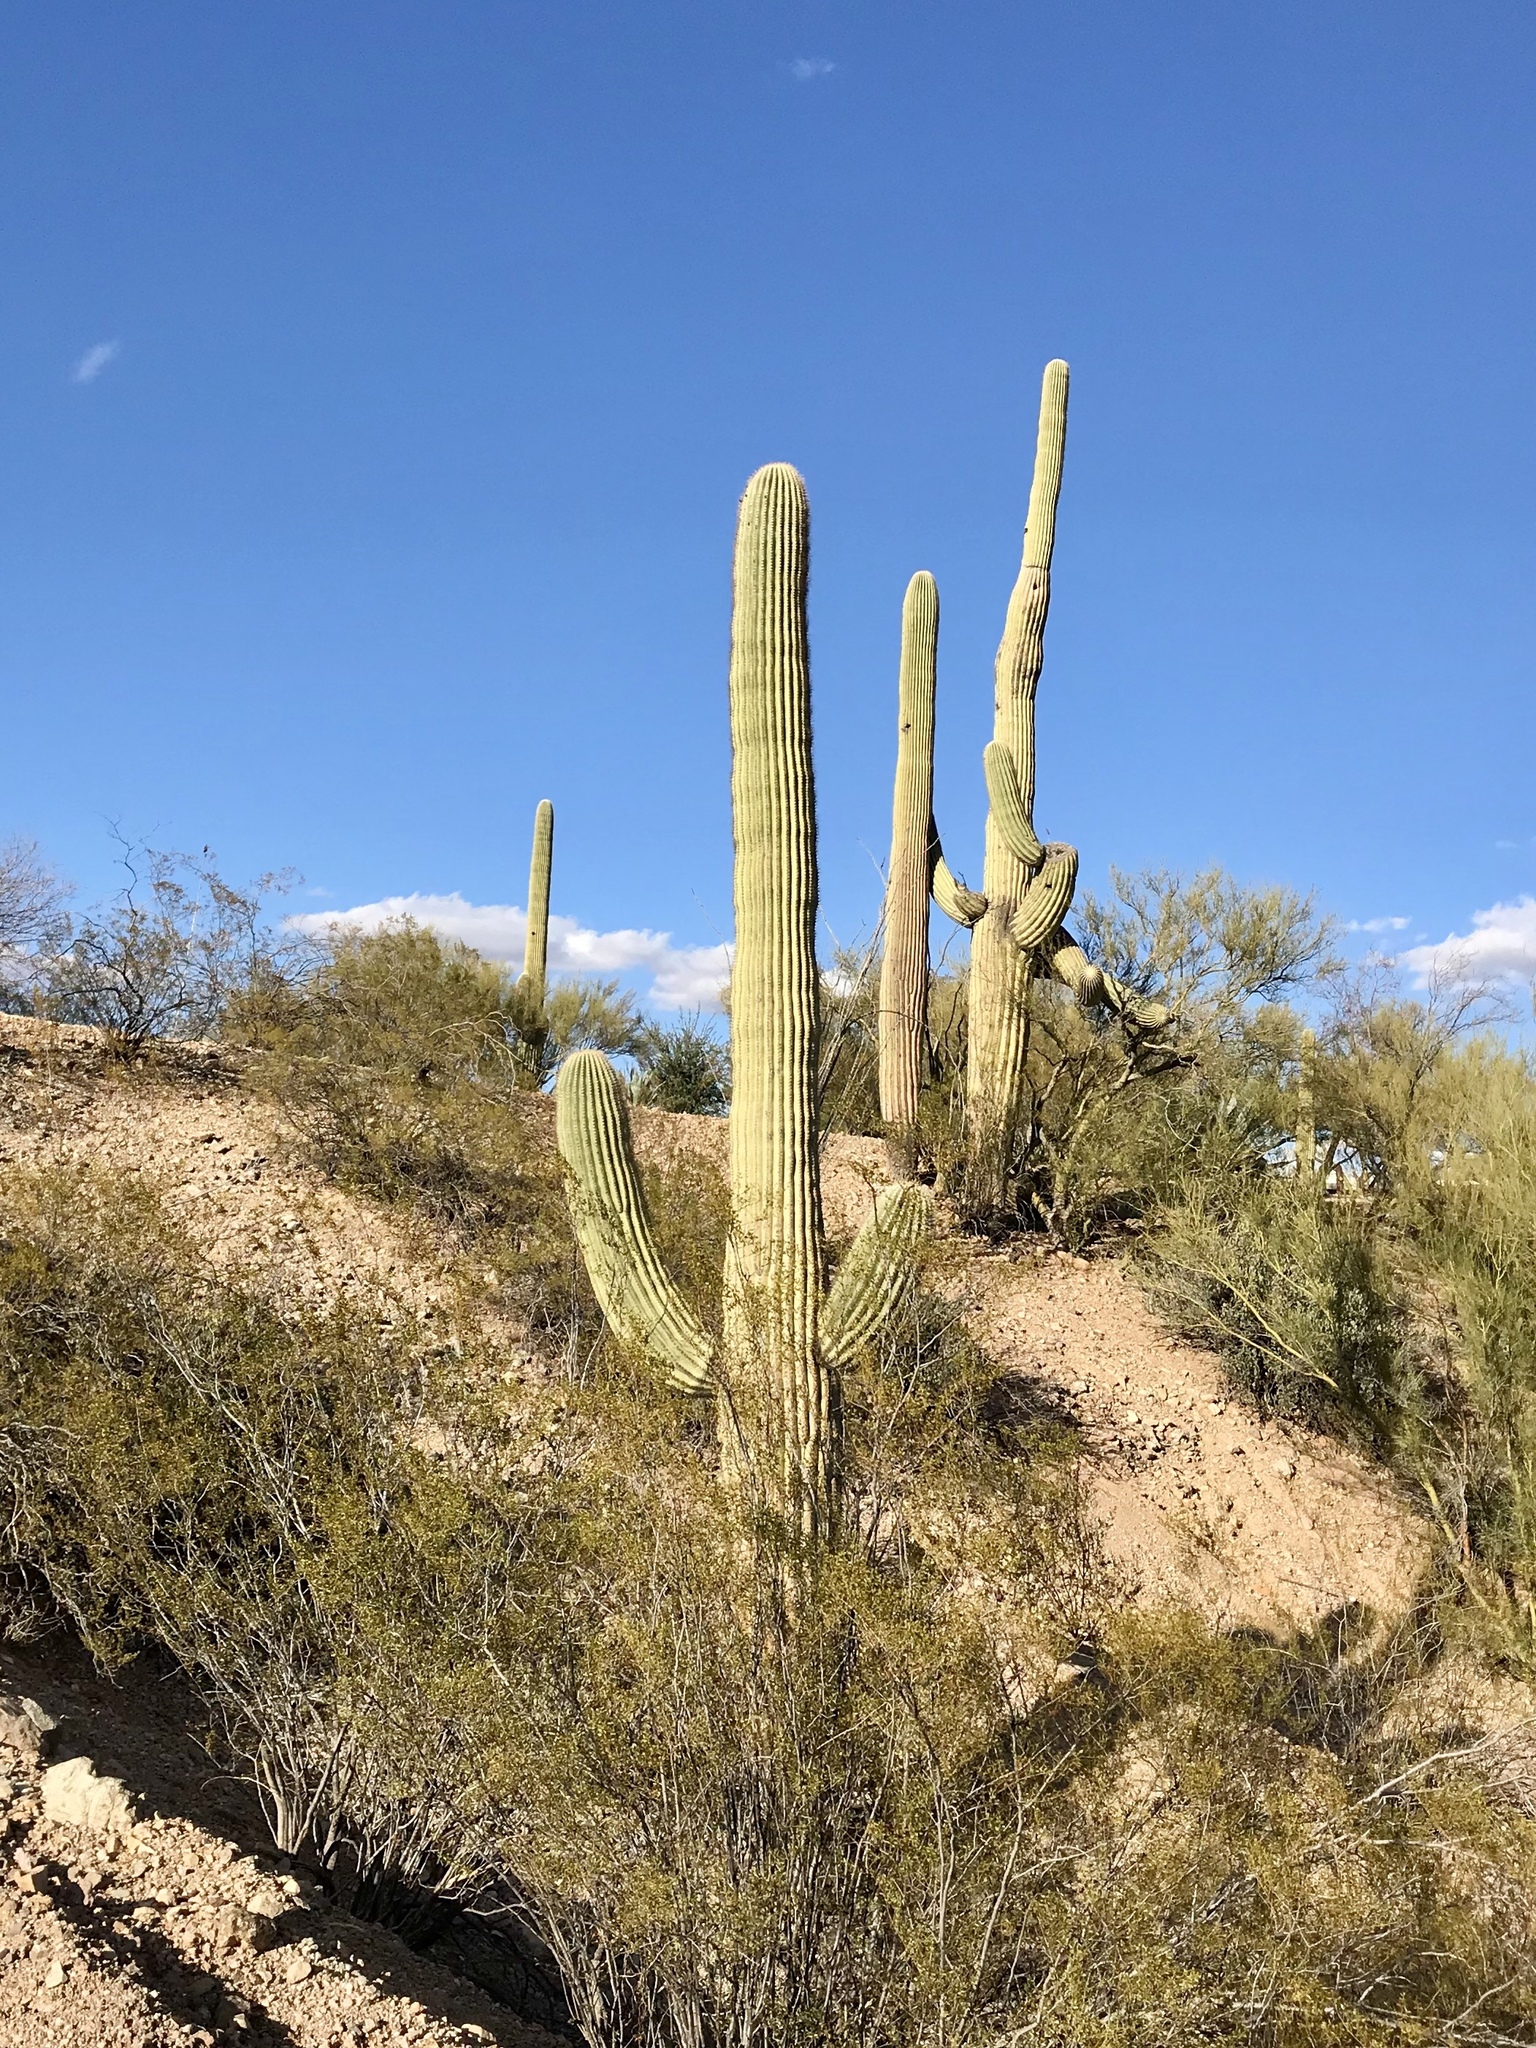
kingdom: Plantae
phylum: Tracheophyta
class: Magnoliopsida
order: Caryophyllales
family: Cactaceae
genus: Carnegiea
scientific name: Carnegiea gigantea
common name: Saguaro
